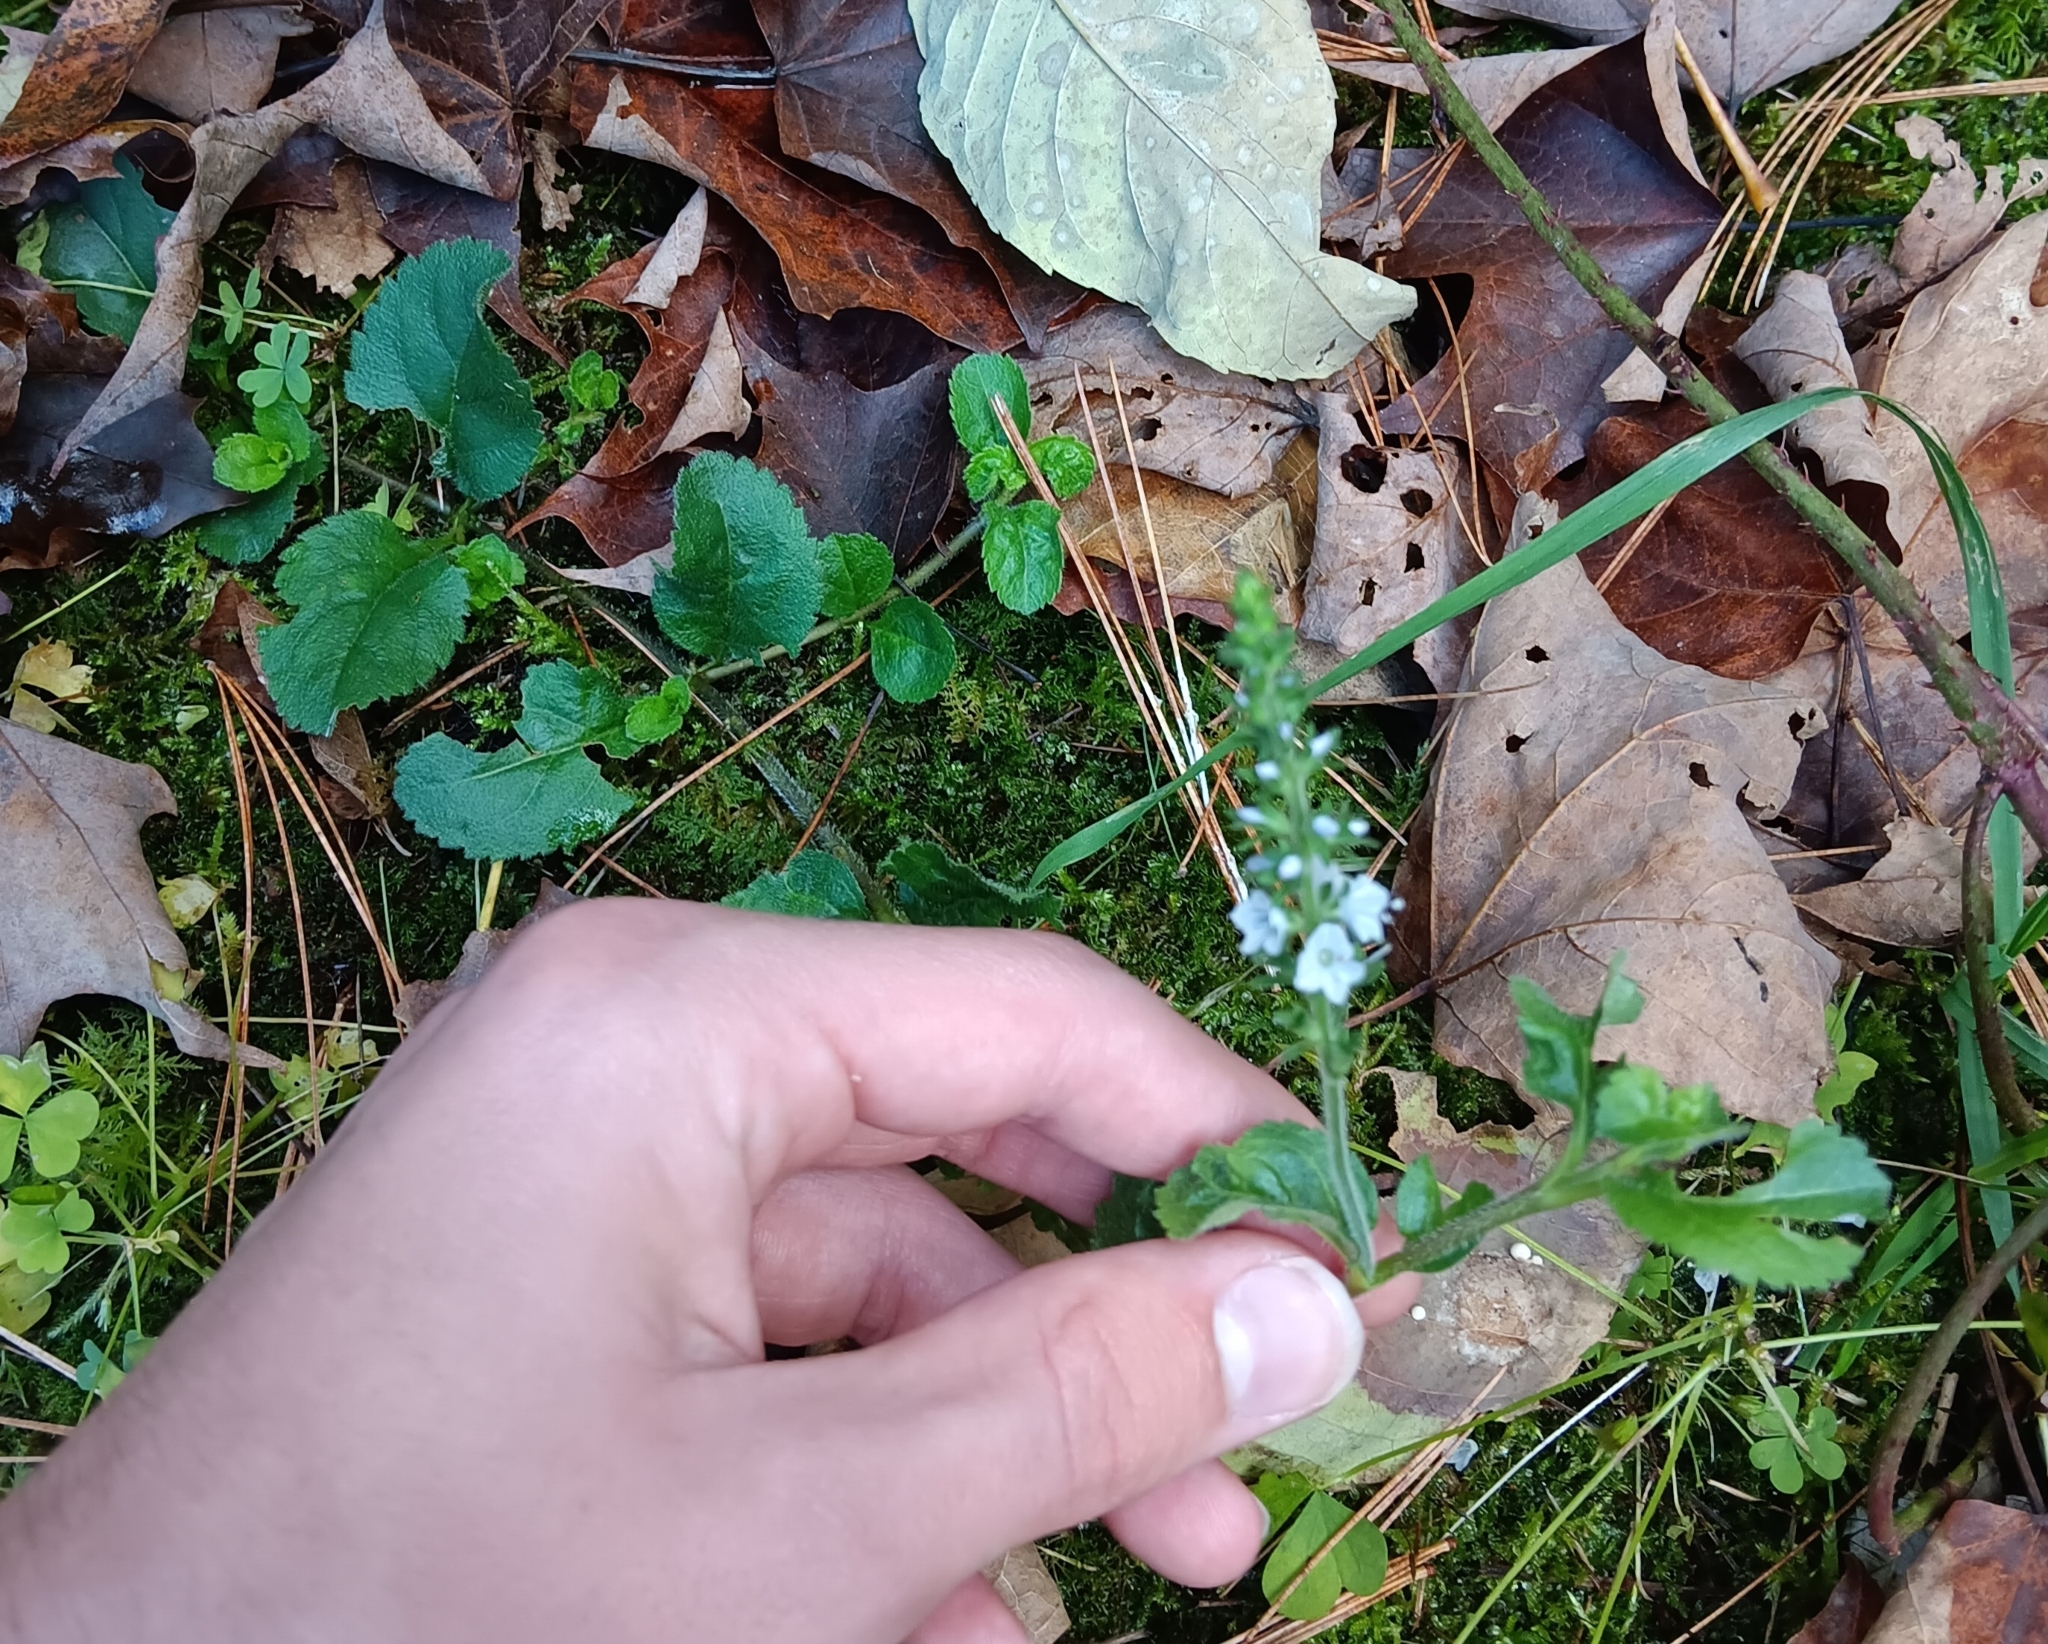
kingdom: Plantae
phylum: Tracheophyta
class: Magnoliopsida
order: Lamiales
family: Plantaginaceae
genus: Veronica
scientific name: Veronica officinalis
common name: Common speedwell
